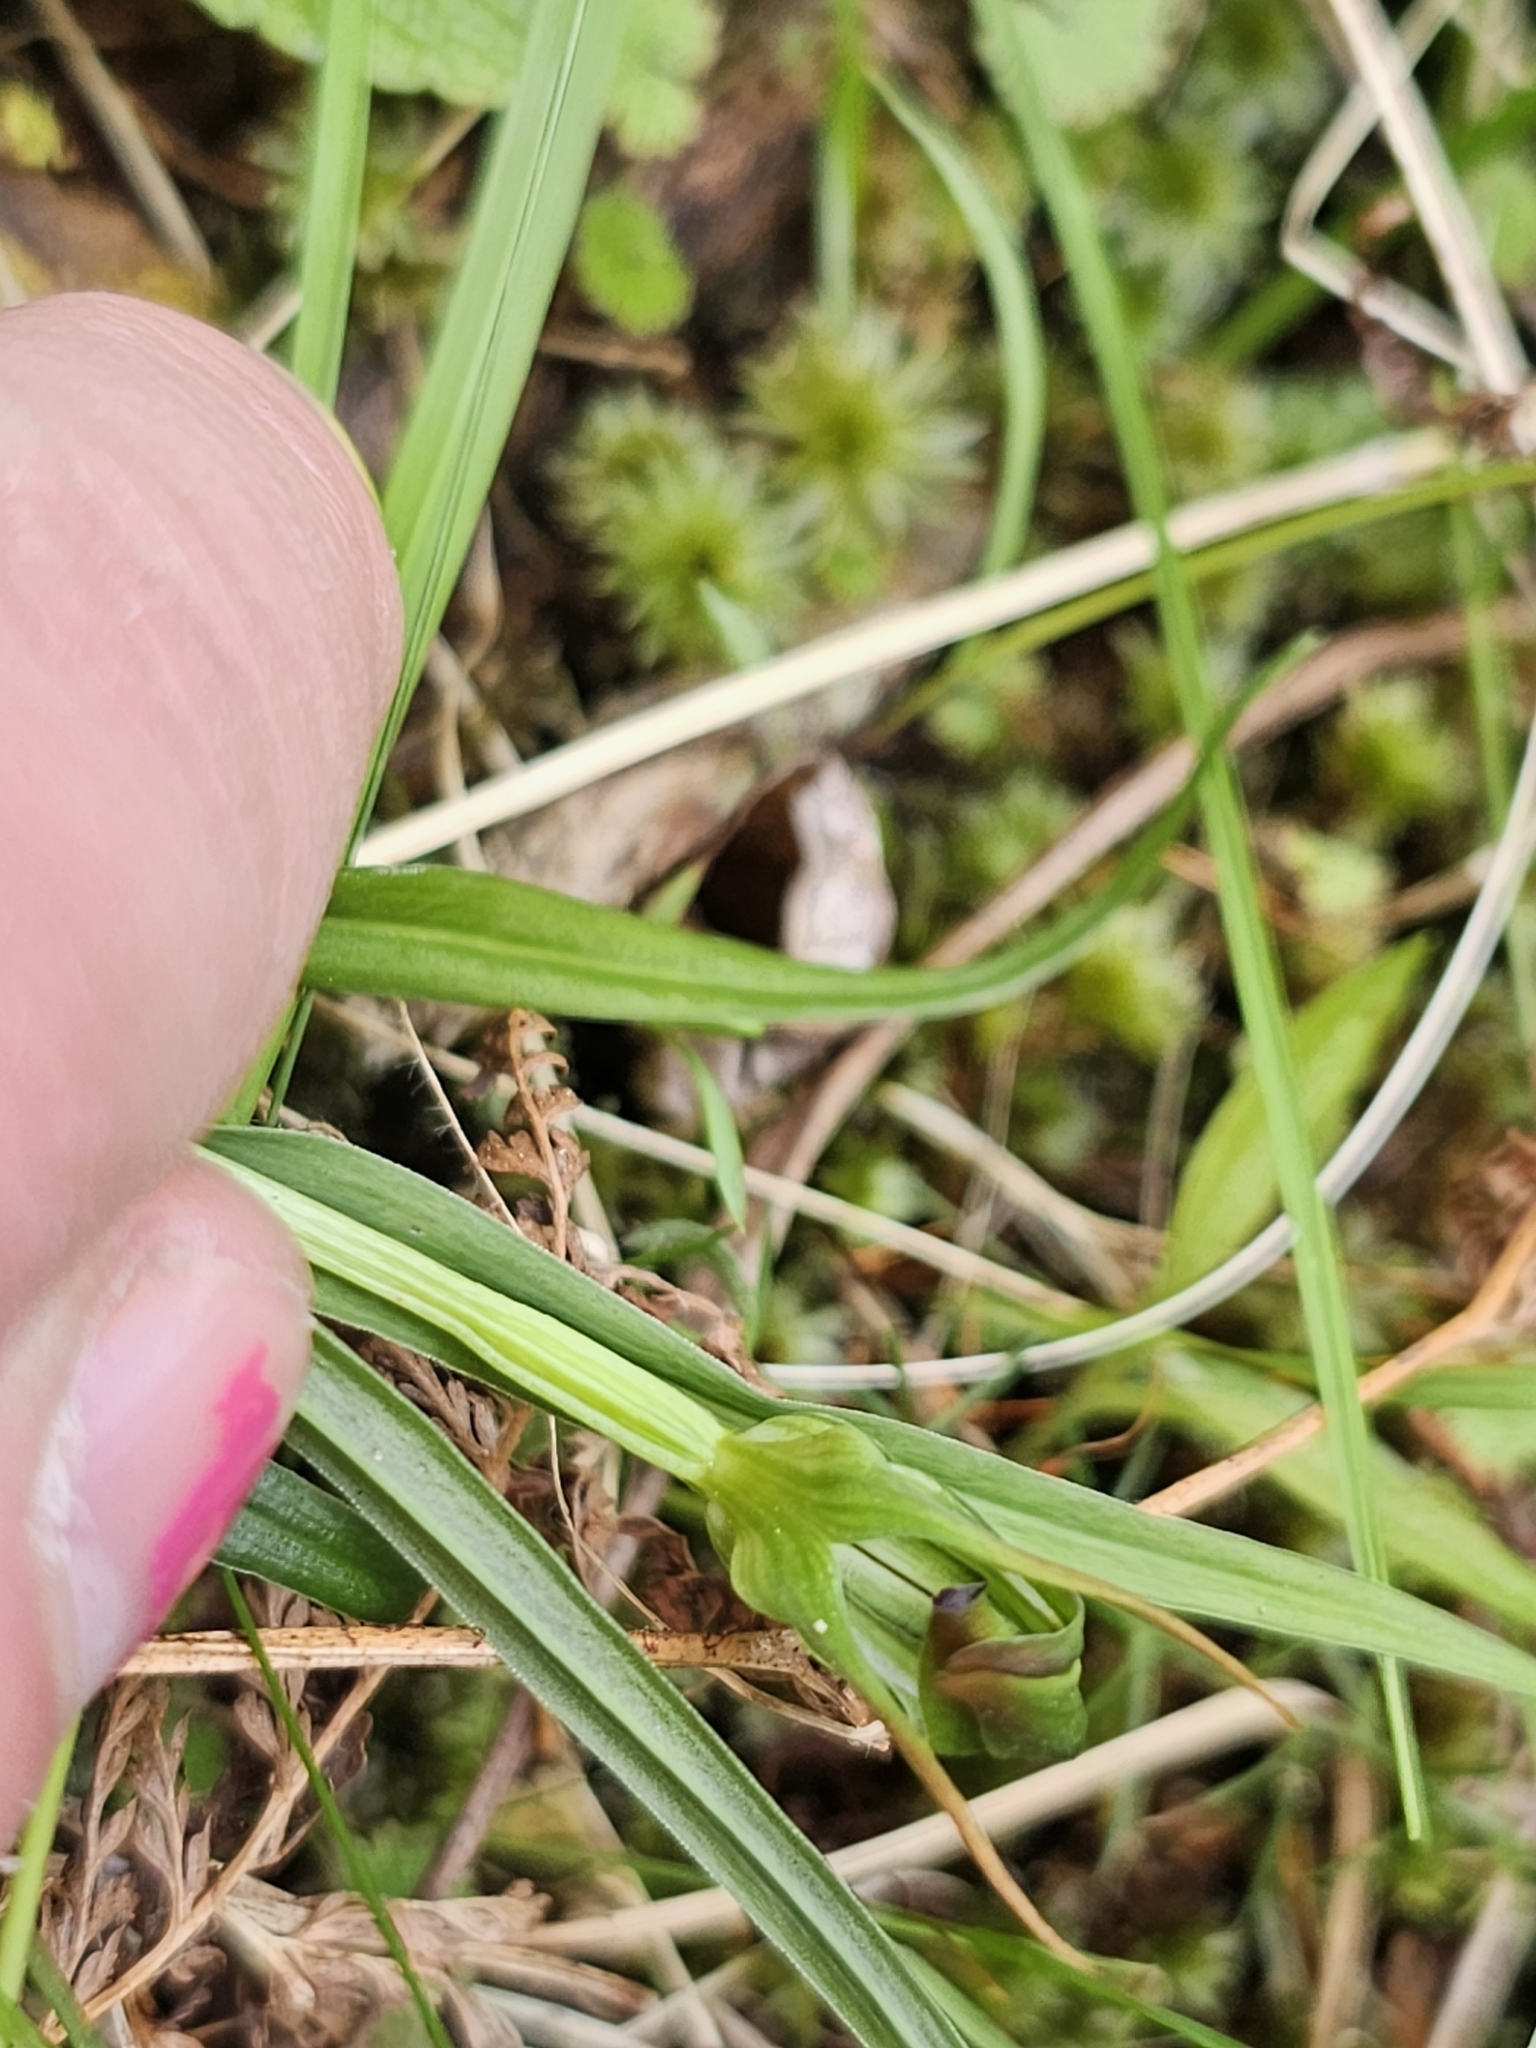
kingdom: Plantae
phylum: Tracheophyta
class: Liliopsida
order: Asparagales
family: Orchidaceae
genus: Pterostylis
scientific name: Pterostylis graminea
